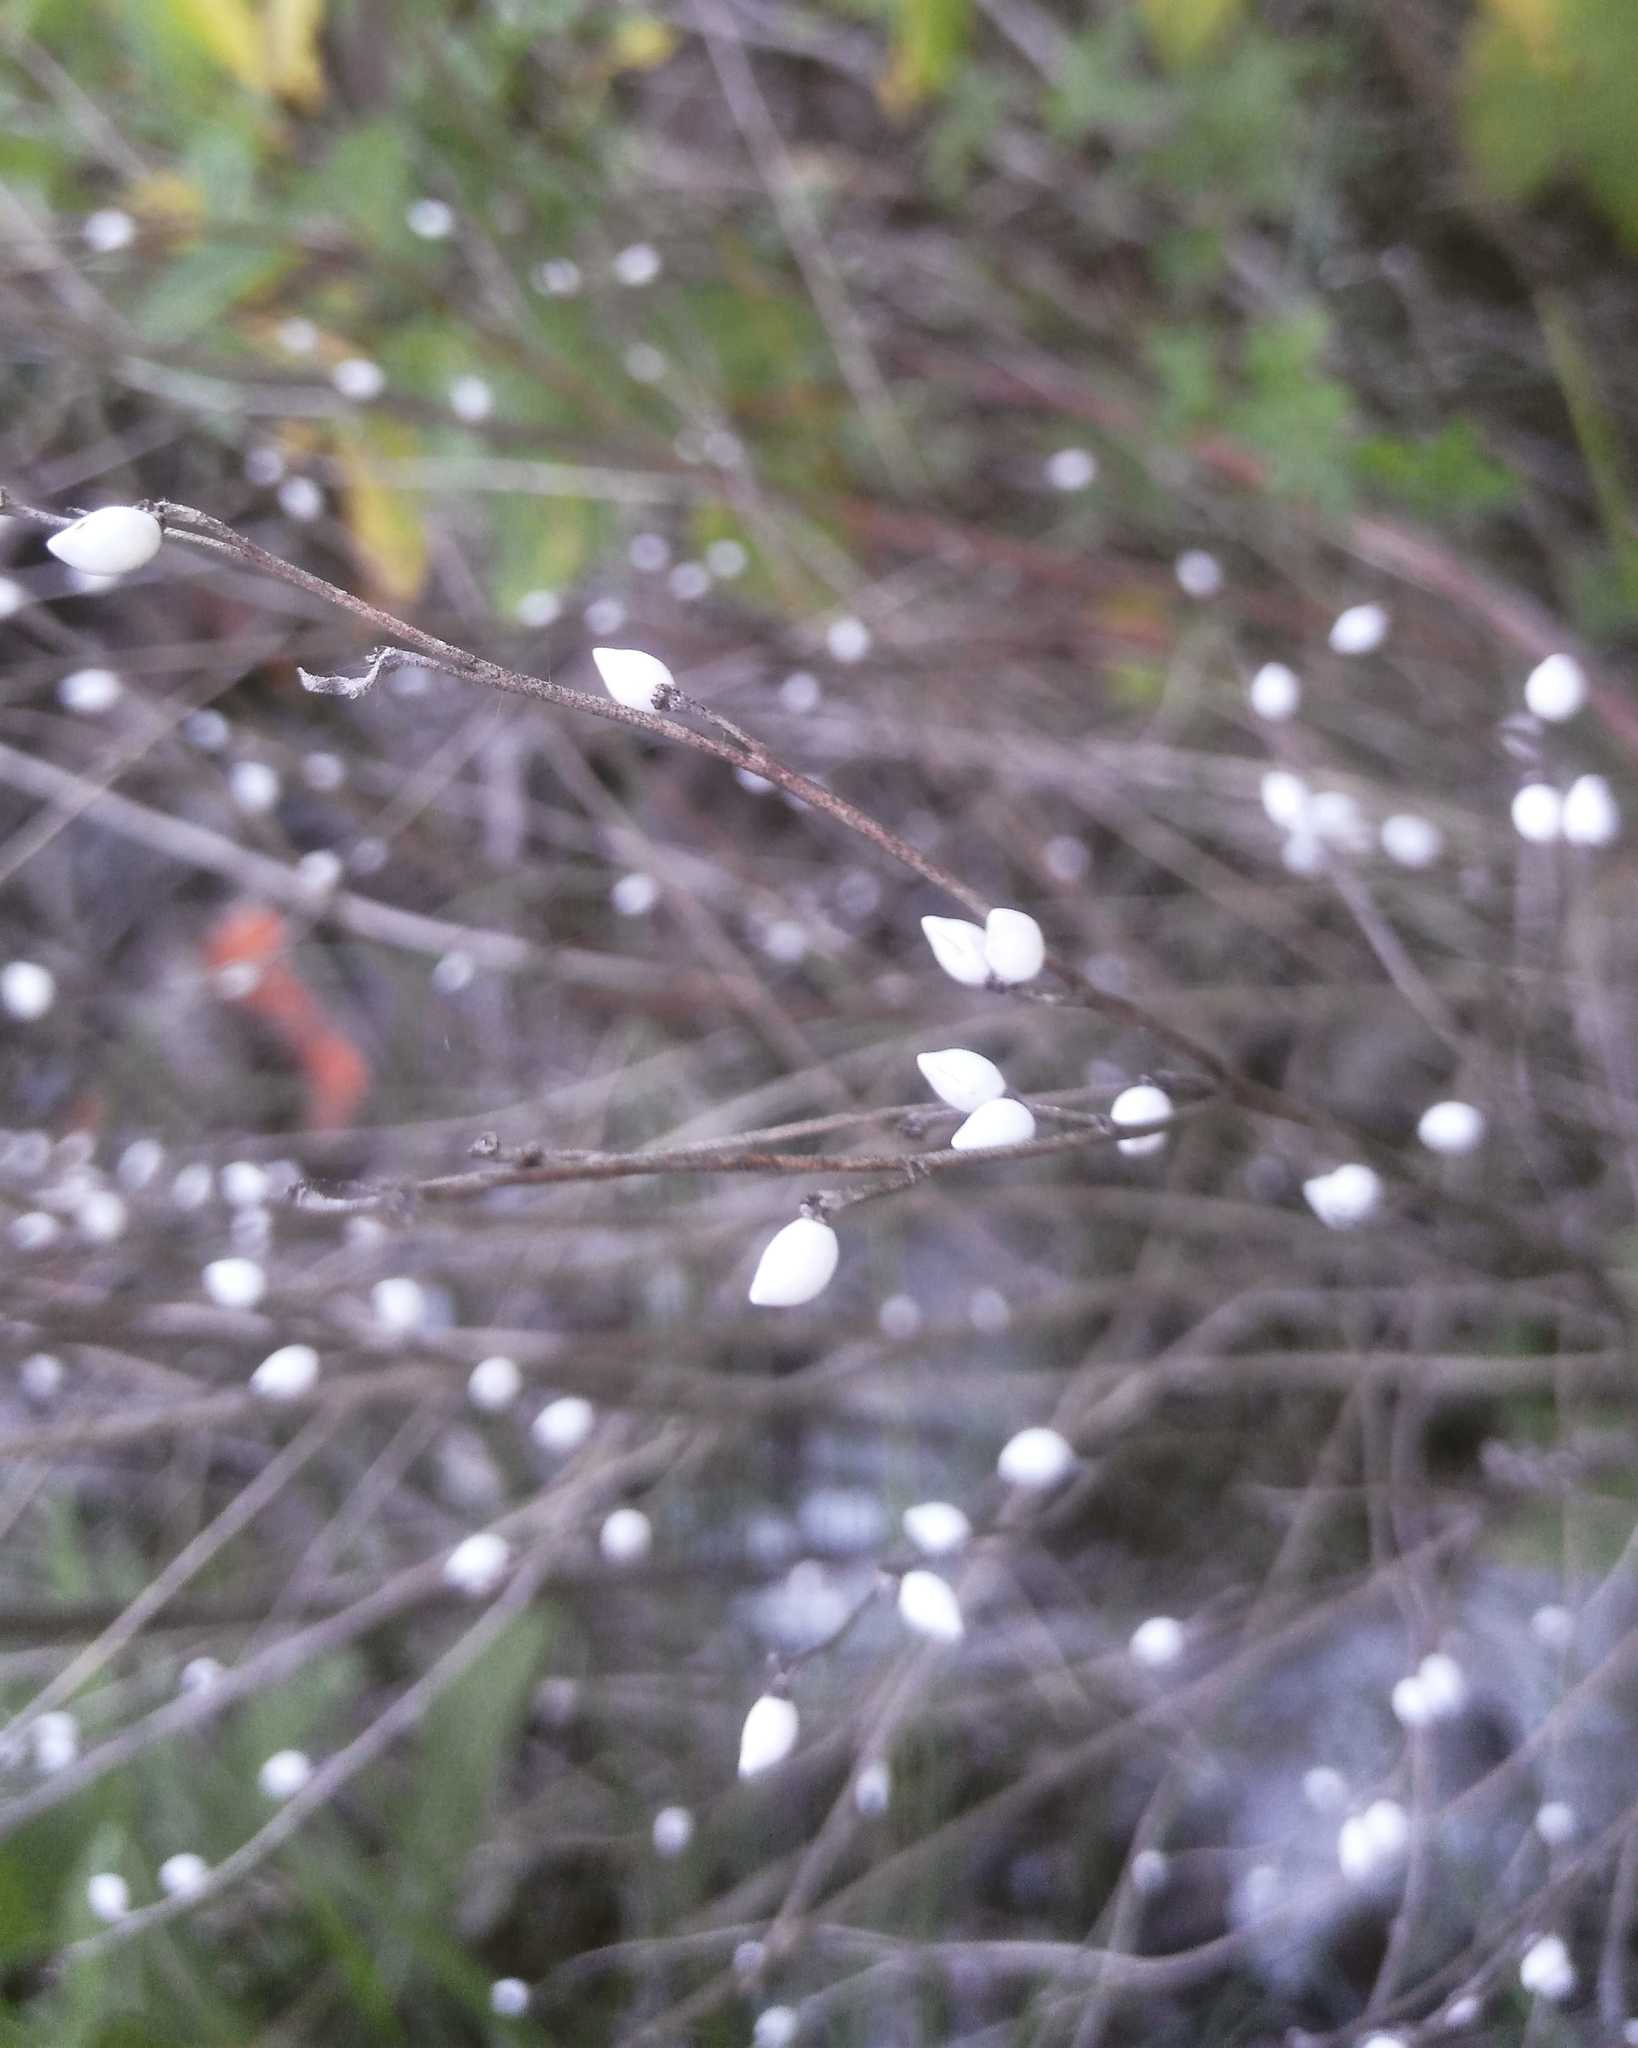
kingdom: Plantae
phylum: Tracheophyta
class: Magnoliopsida
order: Boraginales
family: Boraginaceae
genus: Lithospermum
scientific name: Lithospermum officinale
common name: Common gromwell
